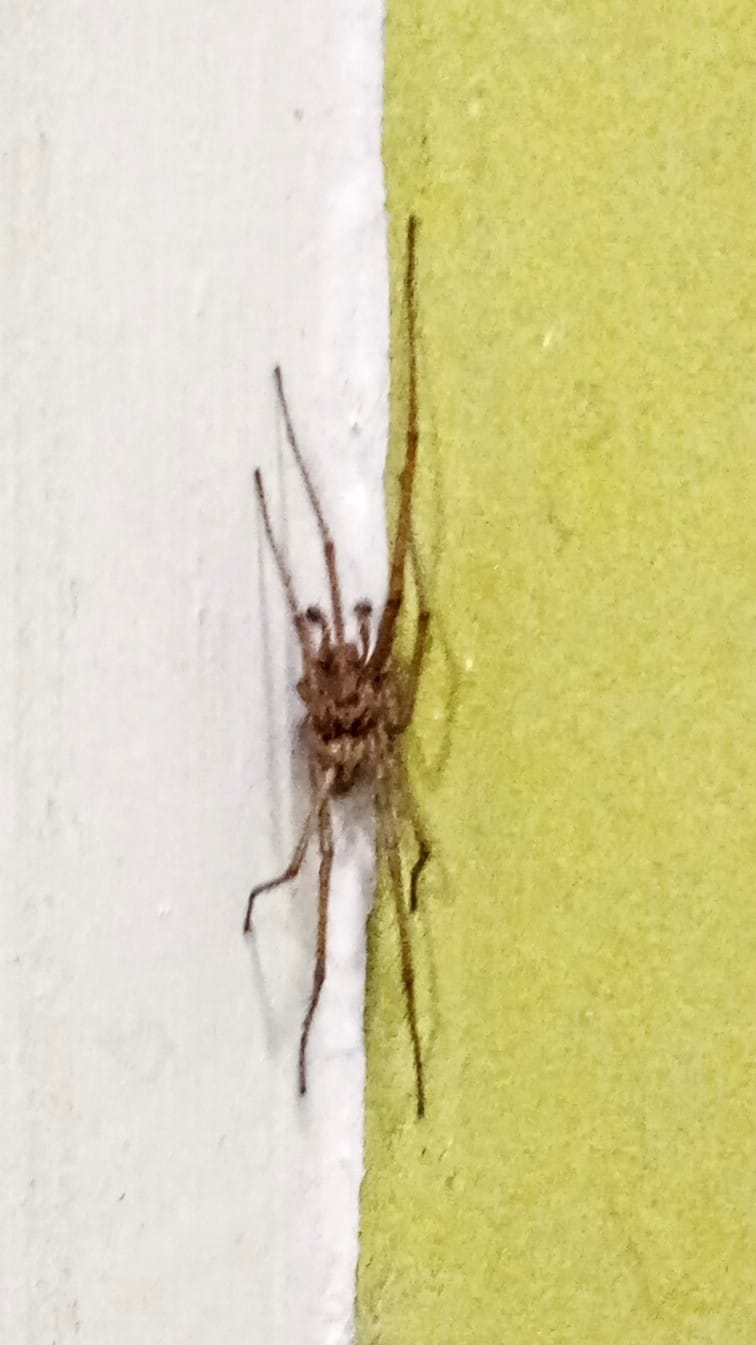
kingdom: Animalia
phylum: Arthropoda
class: Arachnida
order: Araneae
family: Agelenidae
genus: Eratigena
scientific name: Eratigena atrica
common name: Giant house spider
